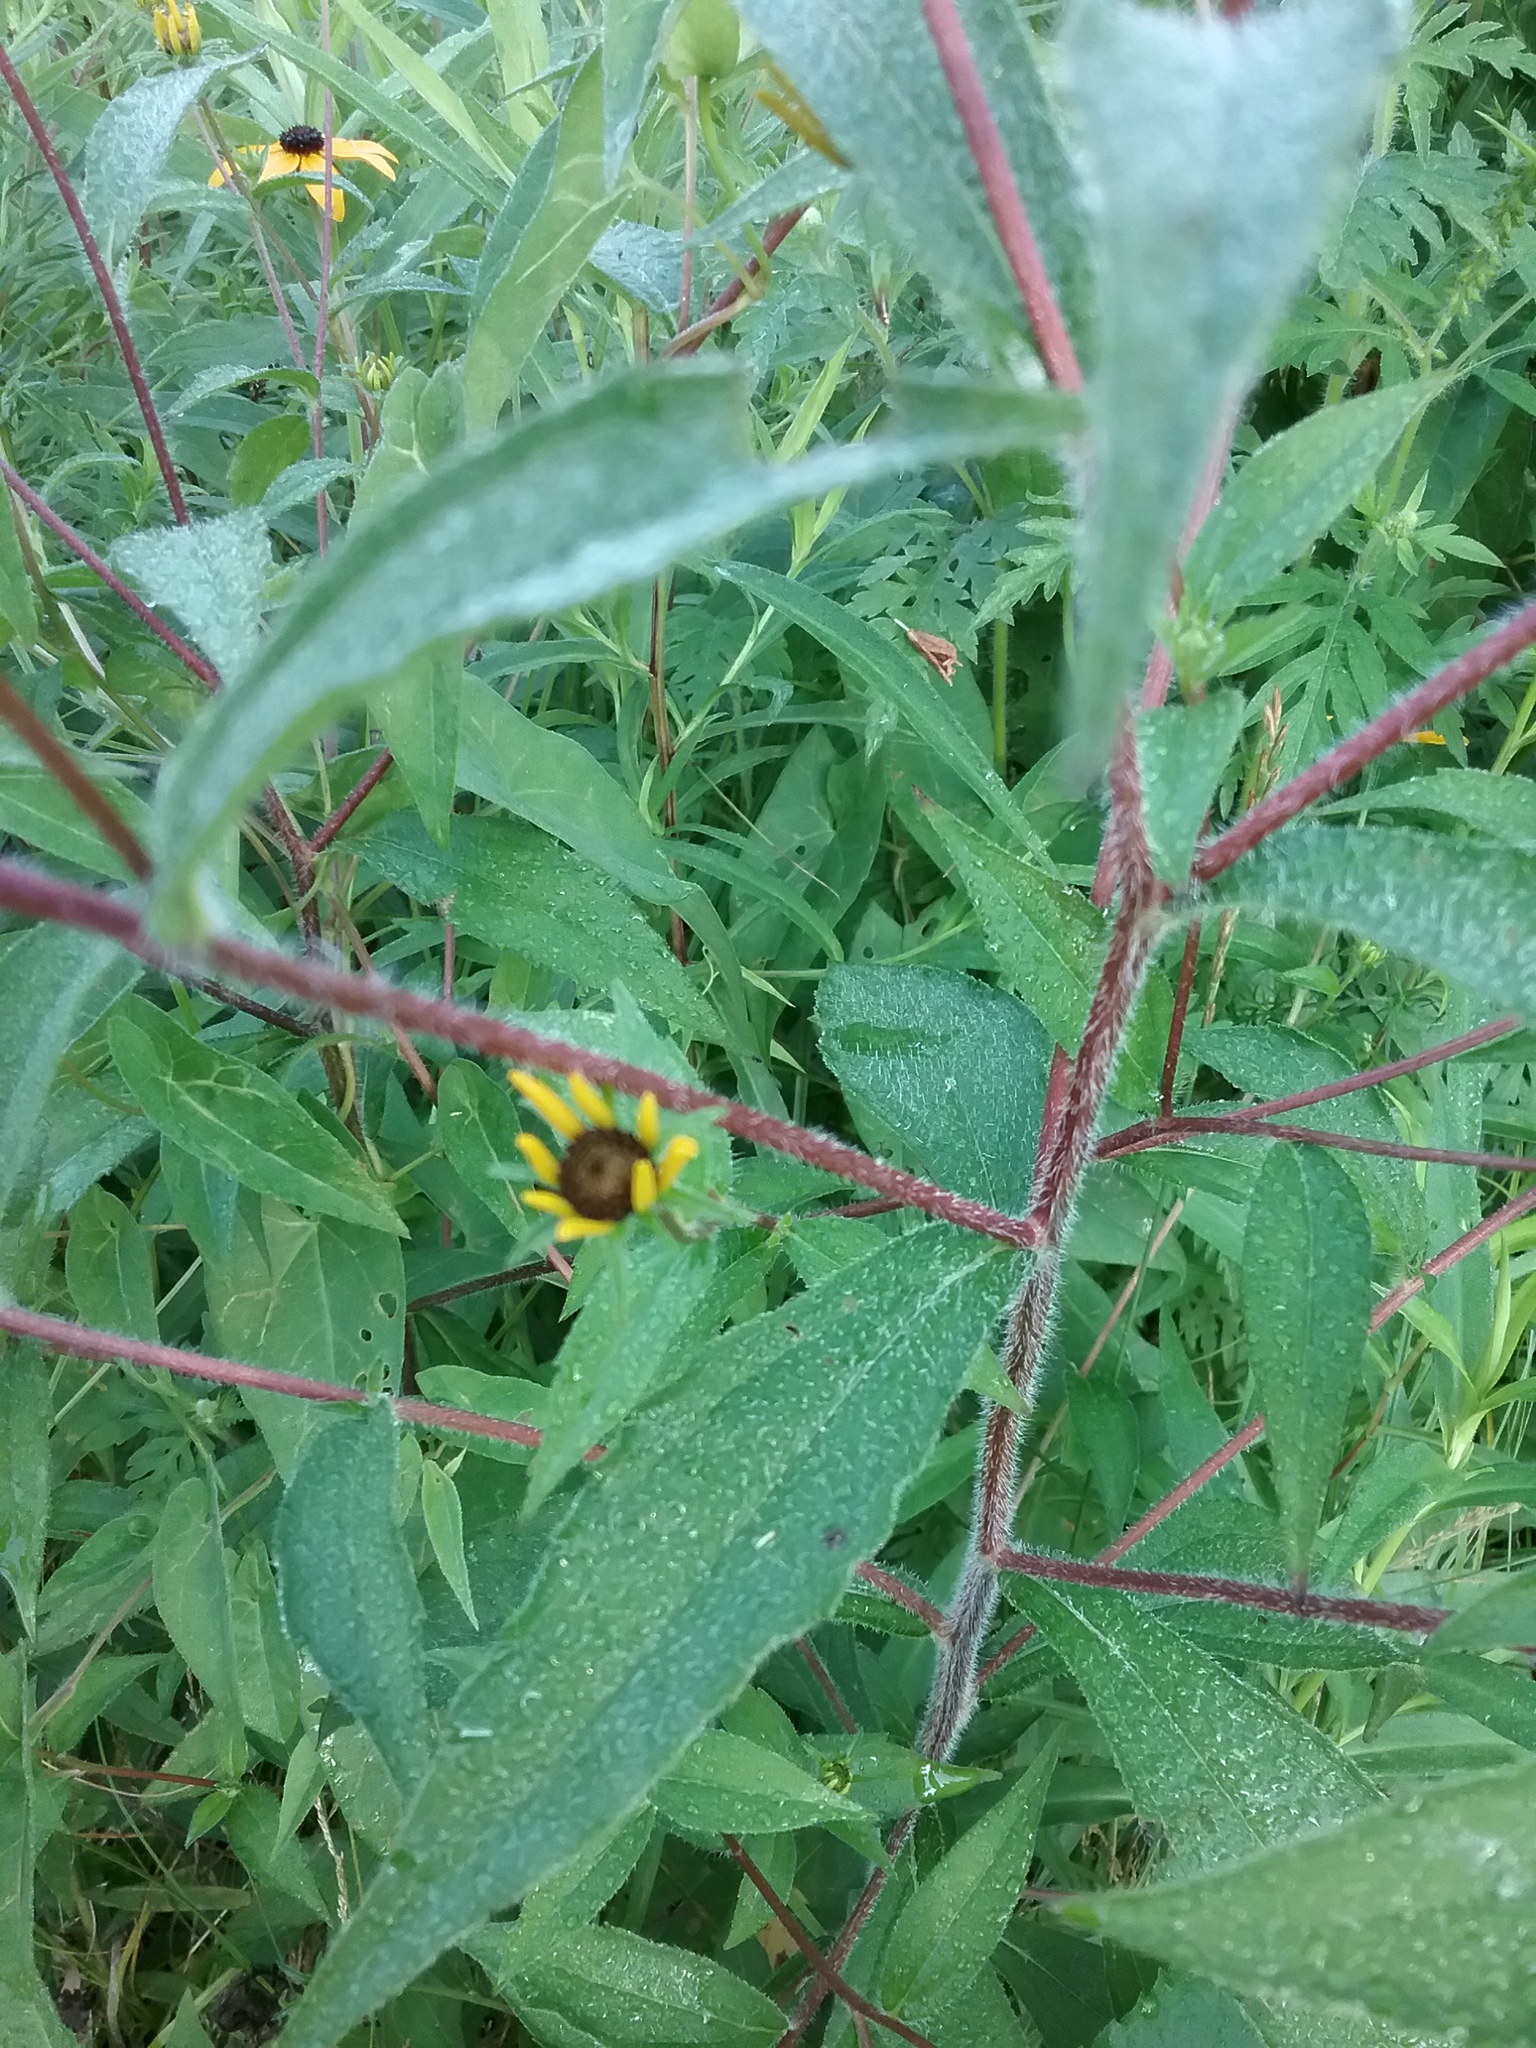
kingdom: Plantae
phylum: Tracheophyta
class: Magnoliopsida
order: Asterales
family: Asteraceae
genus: Rudbeckia
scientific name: Rudbeckia triloba
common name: Thin-leaved coneflower
